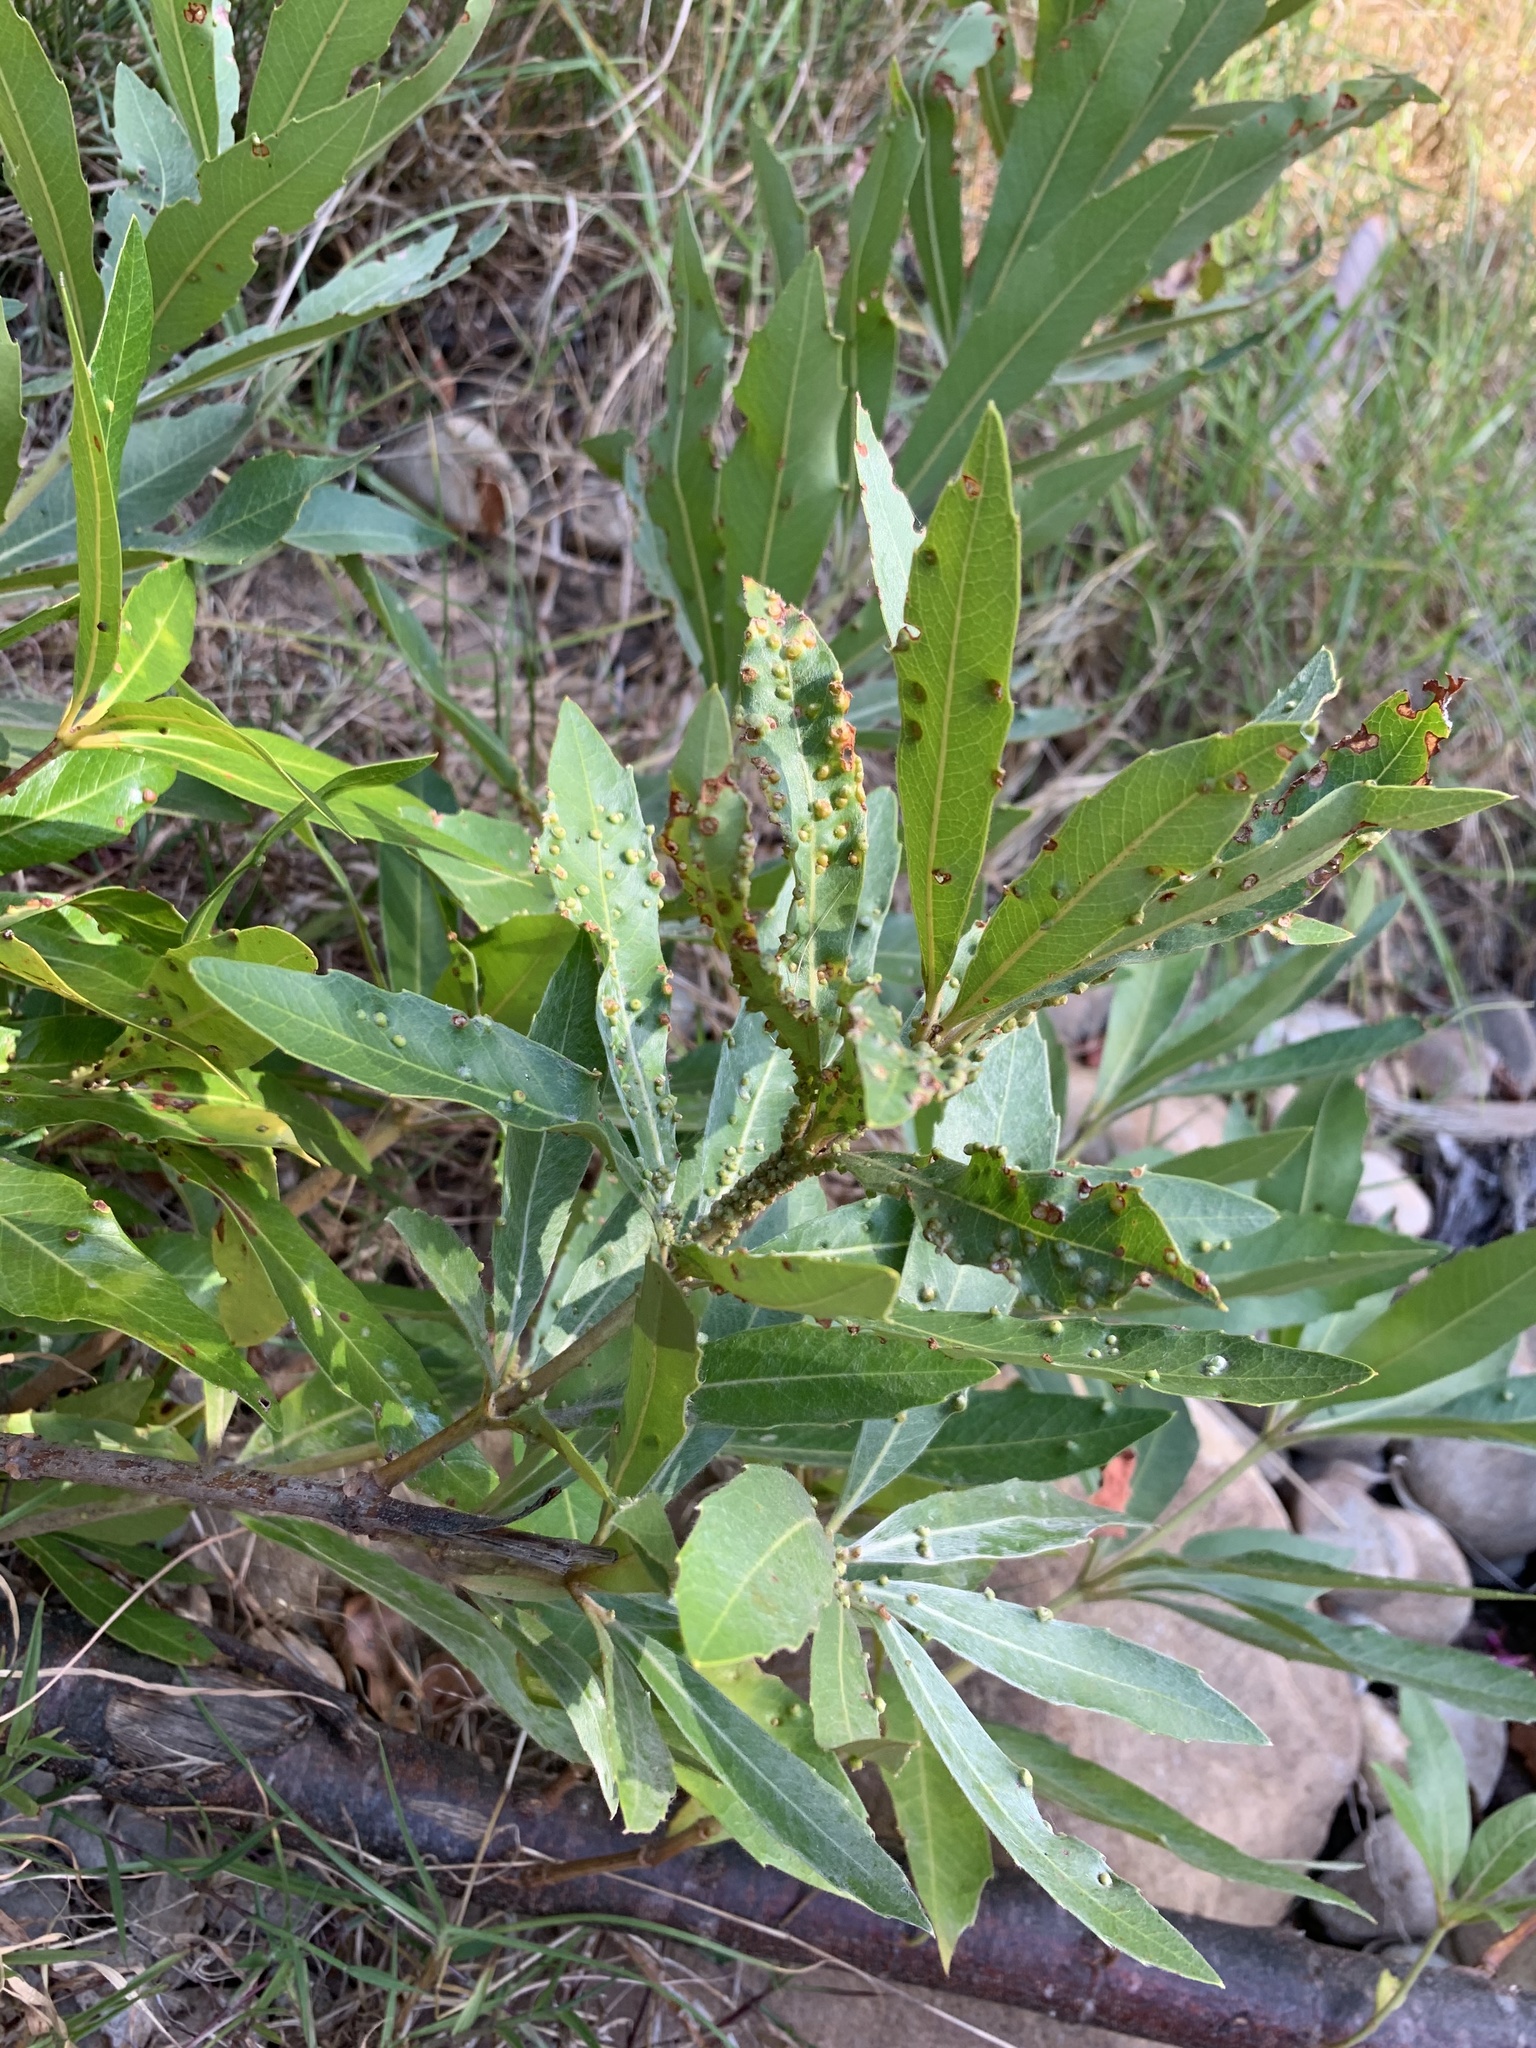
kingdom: Plantae
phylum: Tracheophyta
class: Magnoliopsida
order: Proteales
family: Proteaceae
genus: Brabejum
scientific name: Brabejum stellatifolium
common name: Wild almond
